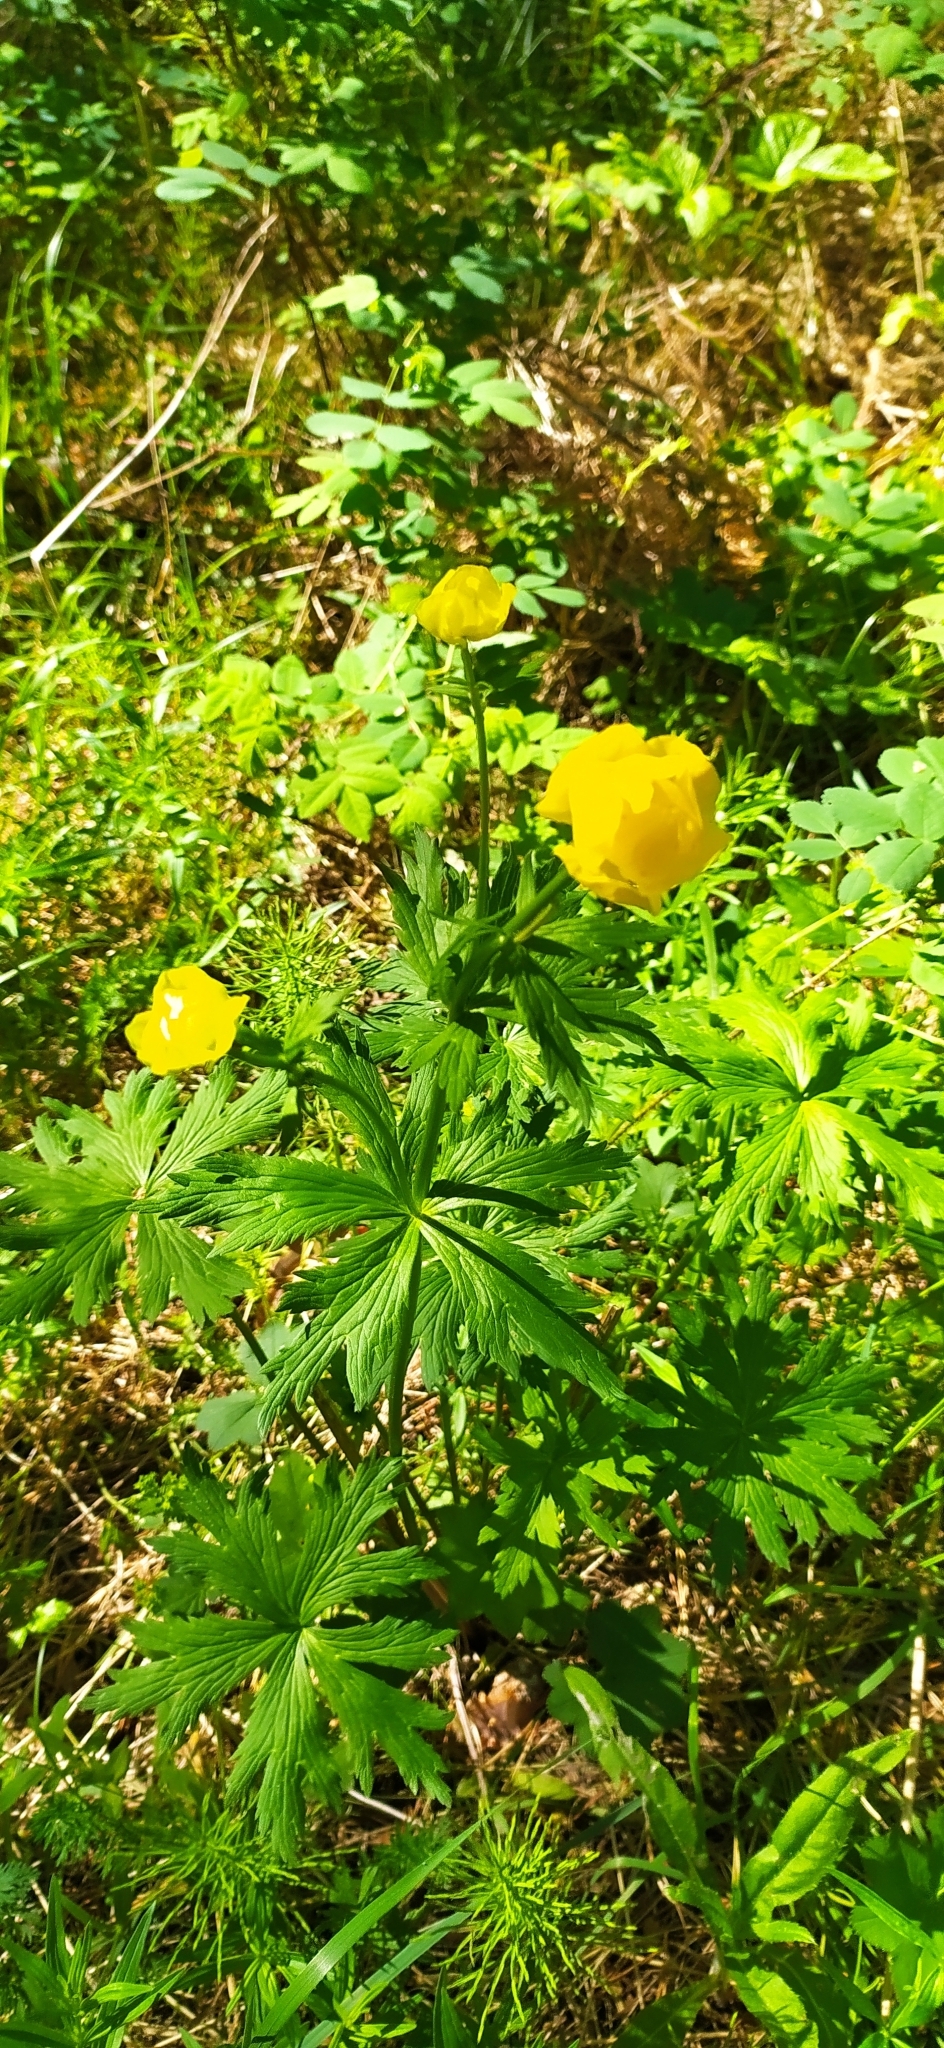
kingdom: Plantae
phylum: Tracheophyta
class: Magnoliopsida
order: Ranunculales
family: Ranunculaceae
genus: Trollius
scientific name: Trollius europaeus
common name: European globeflower
